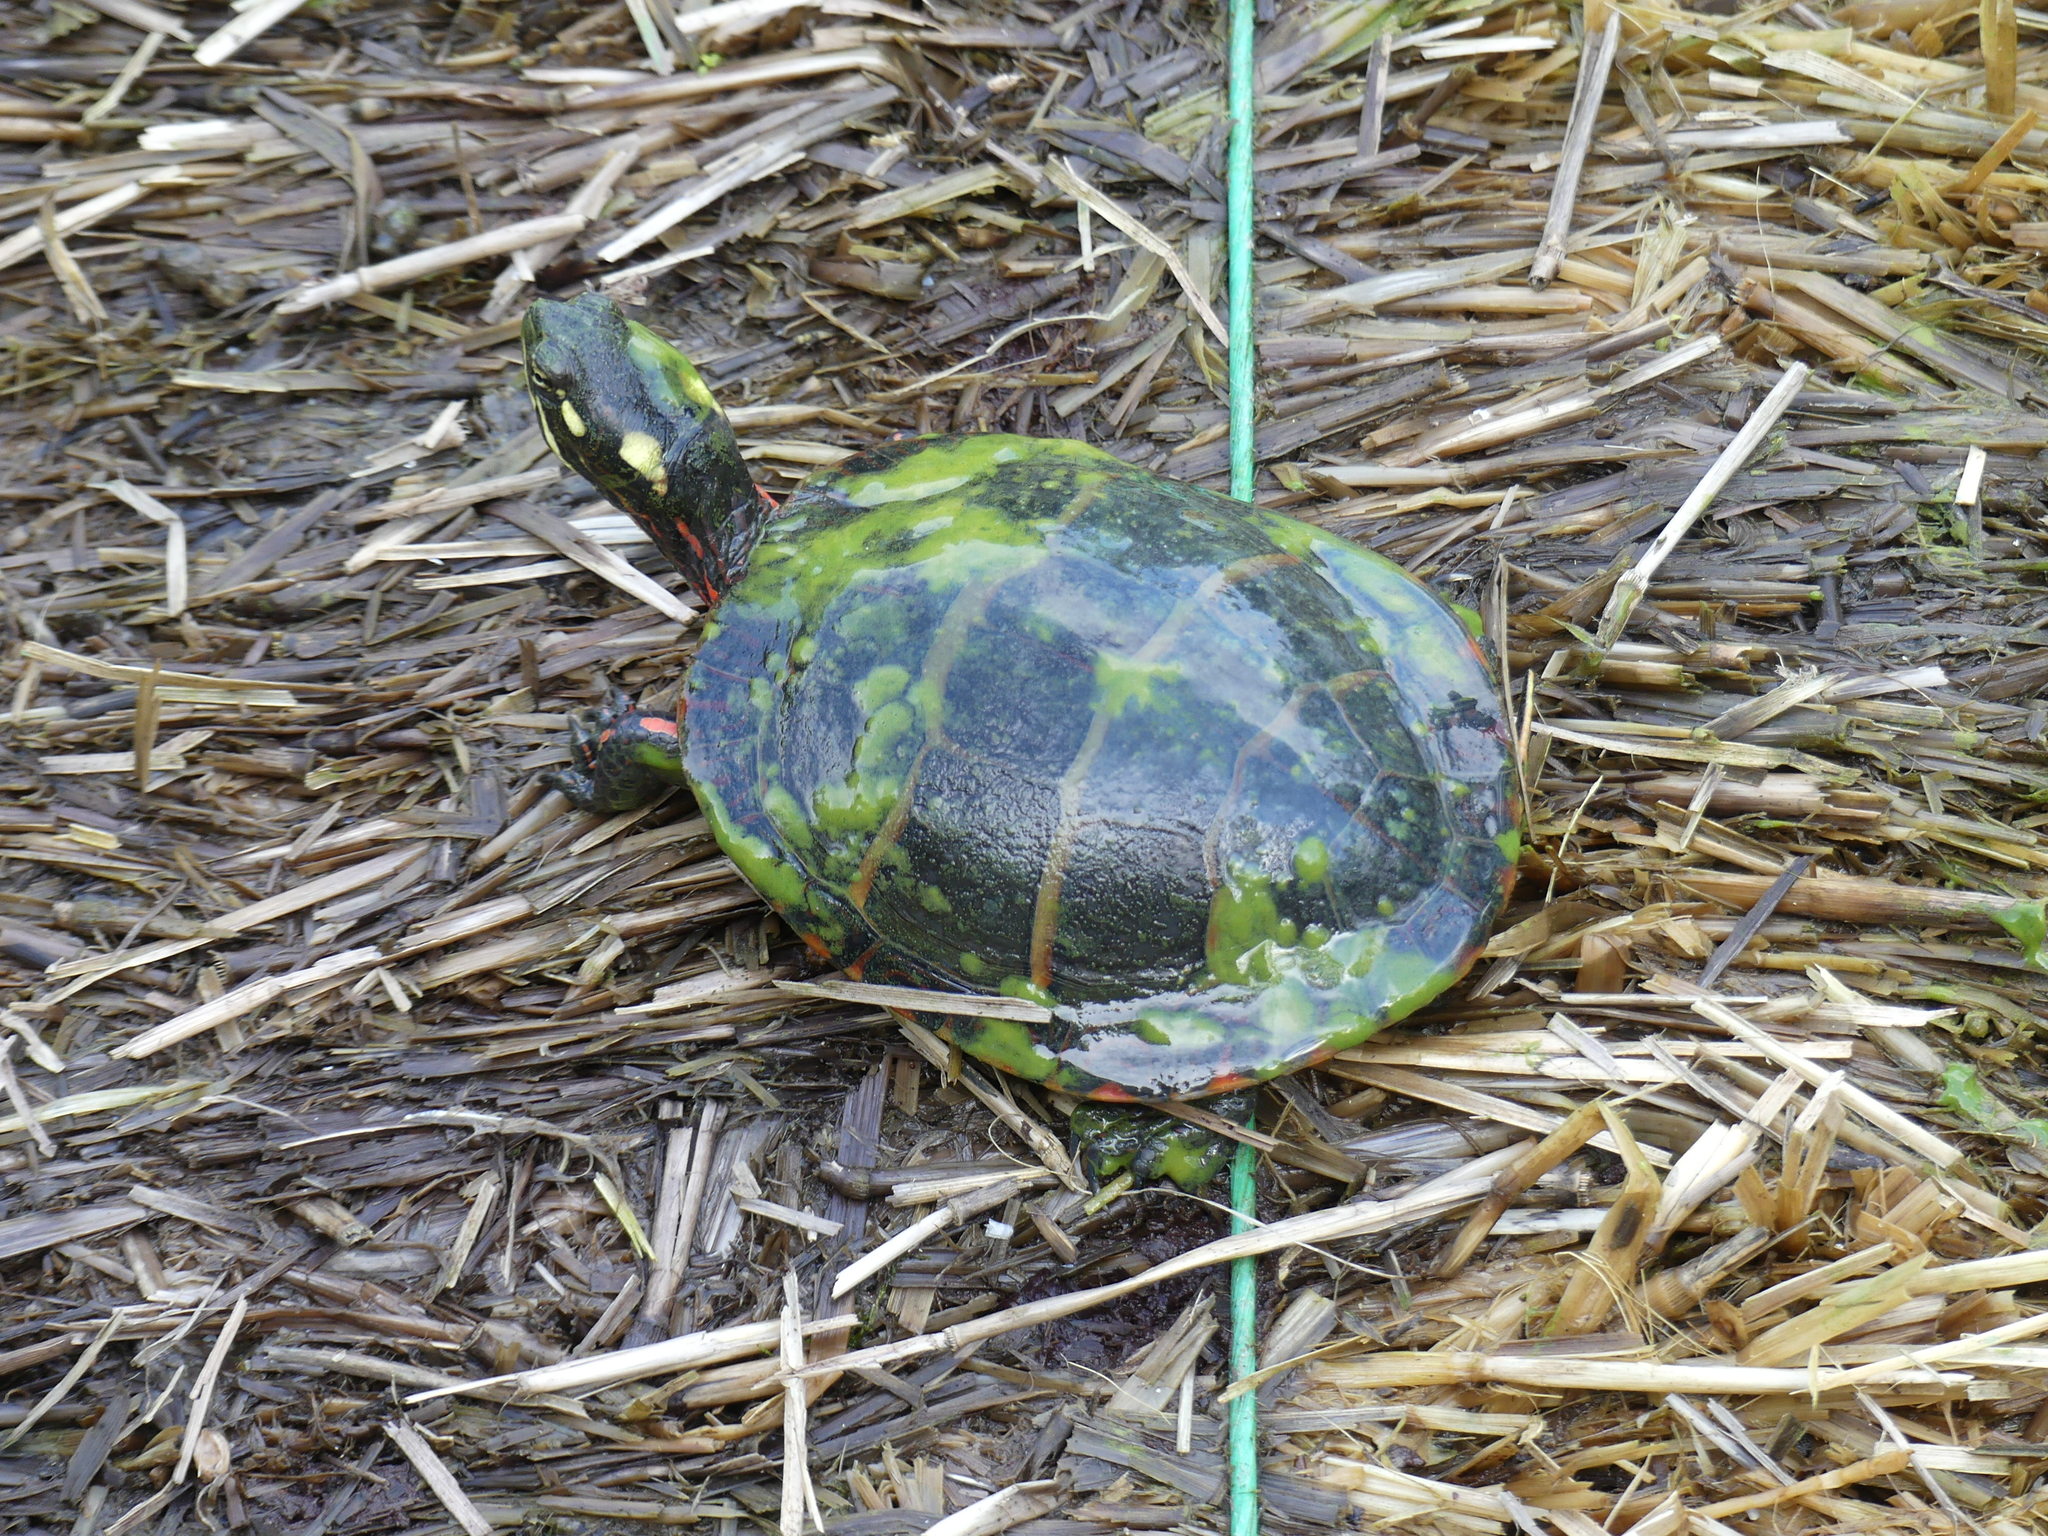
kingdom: Animalia
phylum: Chordata
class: Testudines
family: Emydidae
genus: Chrysemys
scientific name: Chrysemys picta
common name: Painted turtle
